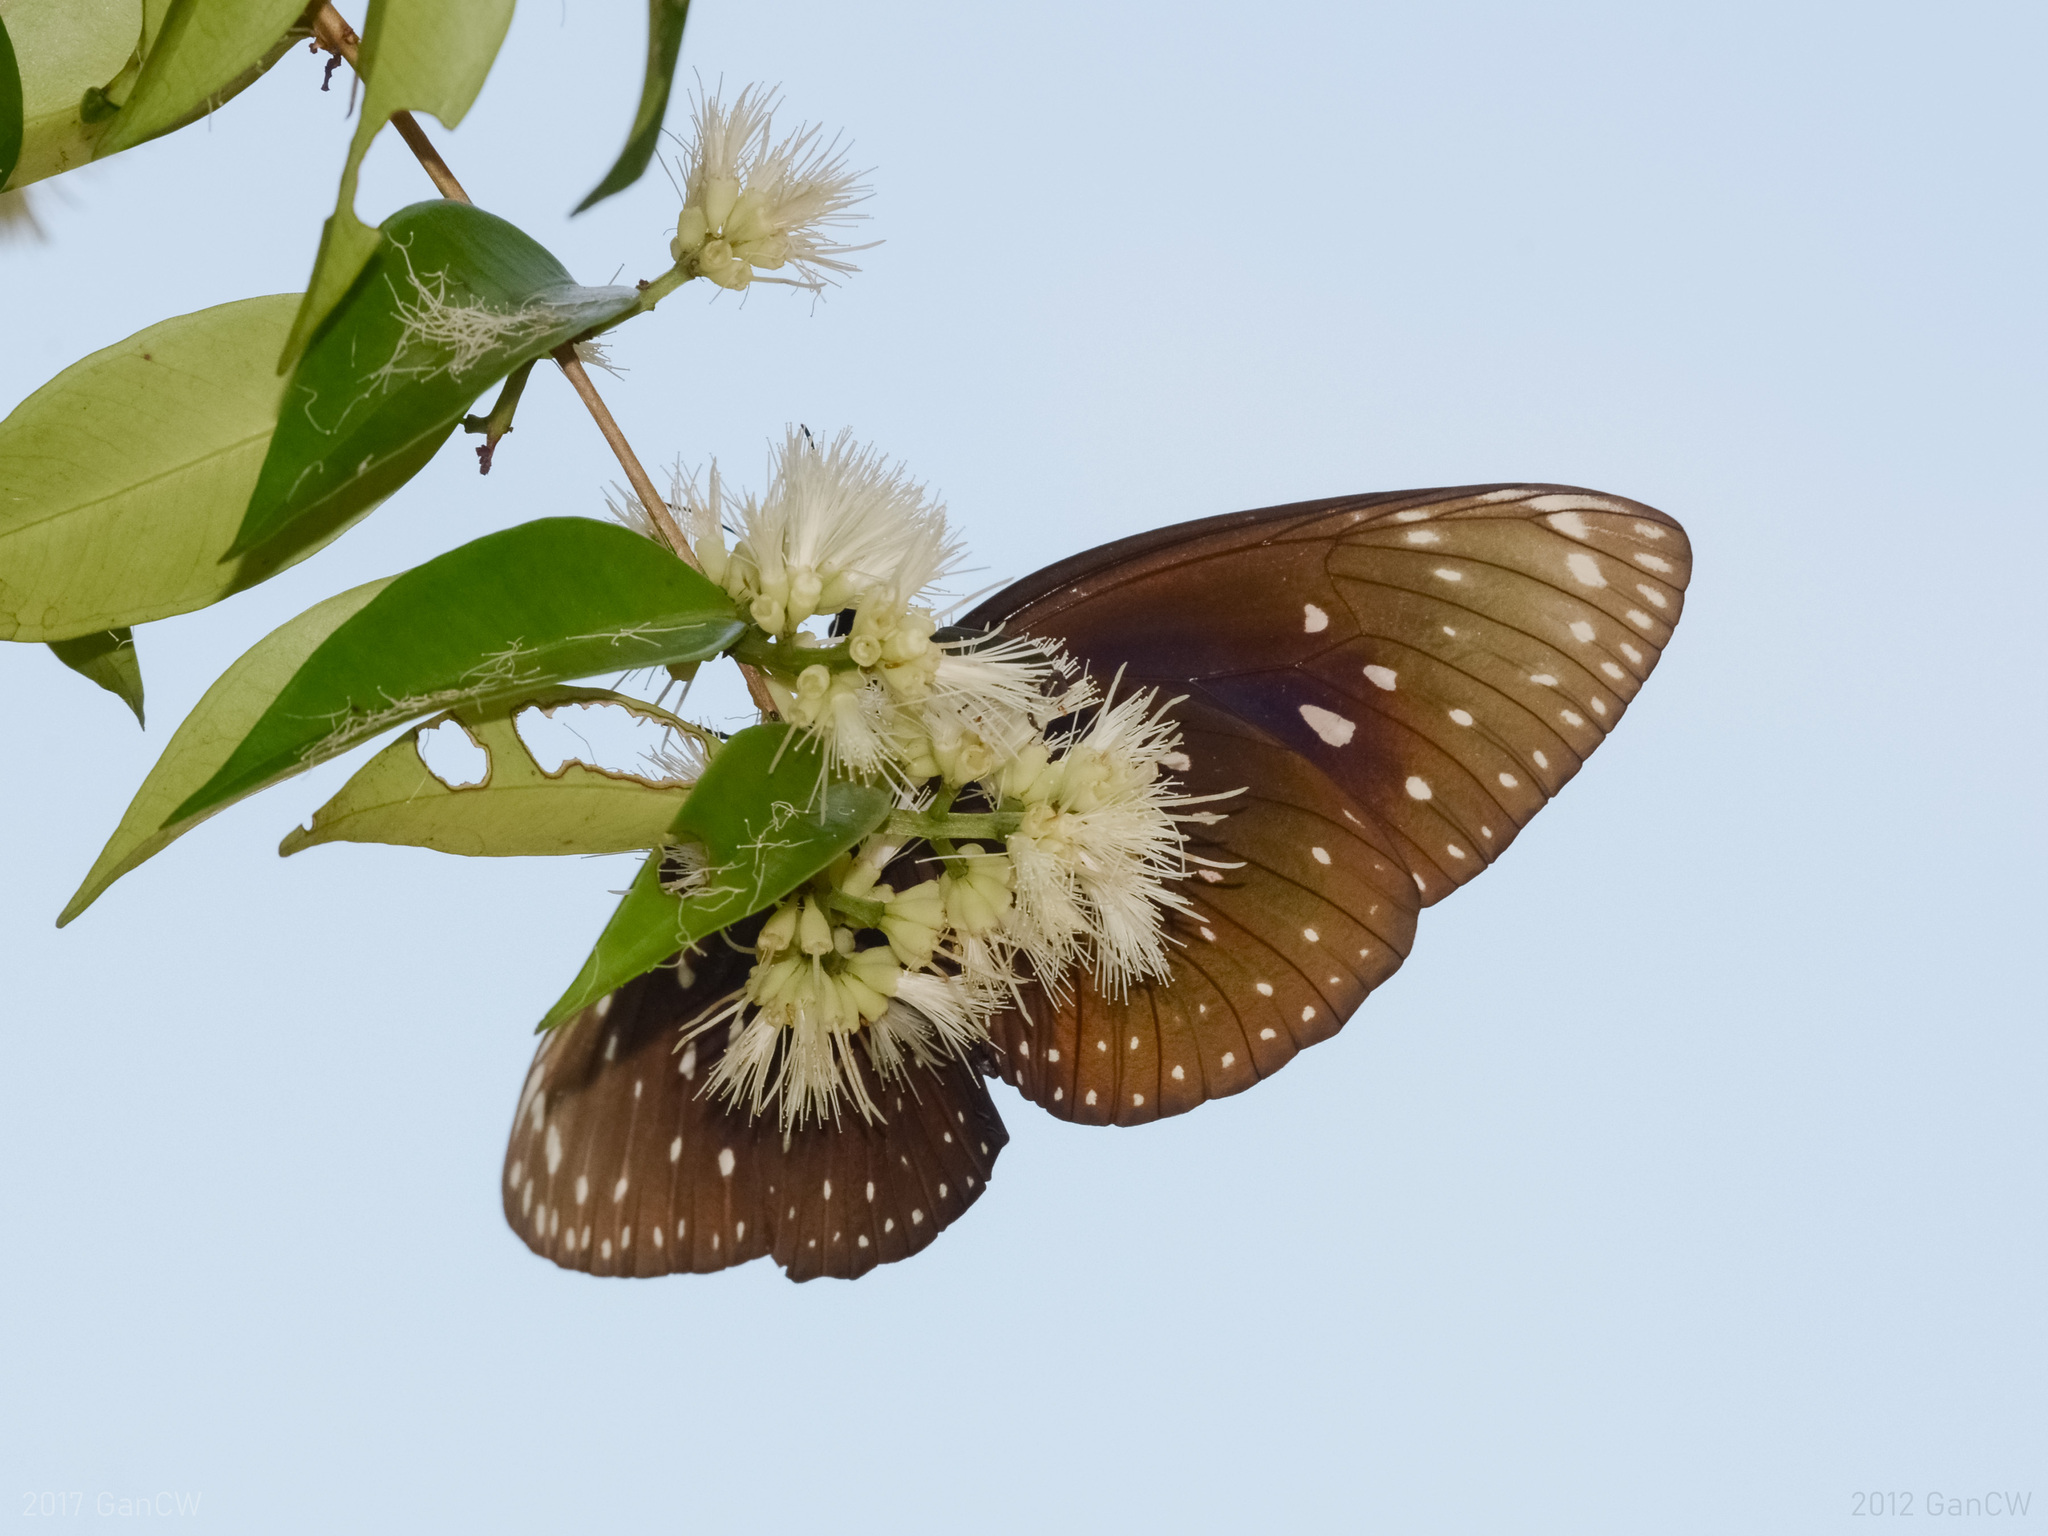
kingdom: Animalia
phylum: Arthropoda
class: Insecta
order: Lepidoptera
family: Nymphalidae
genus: Euploea
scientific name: Euploea phaenareta
